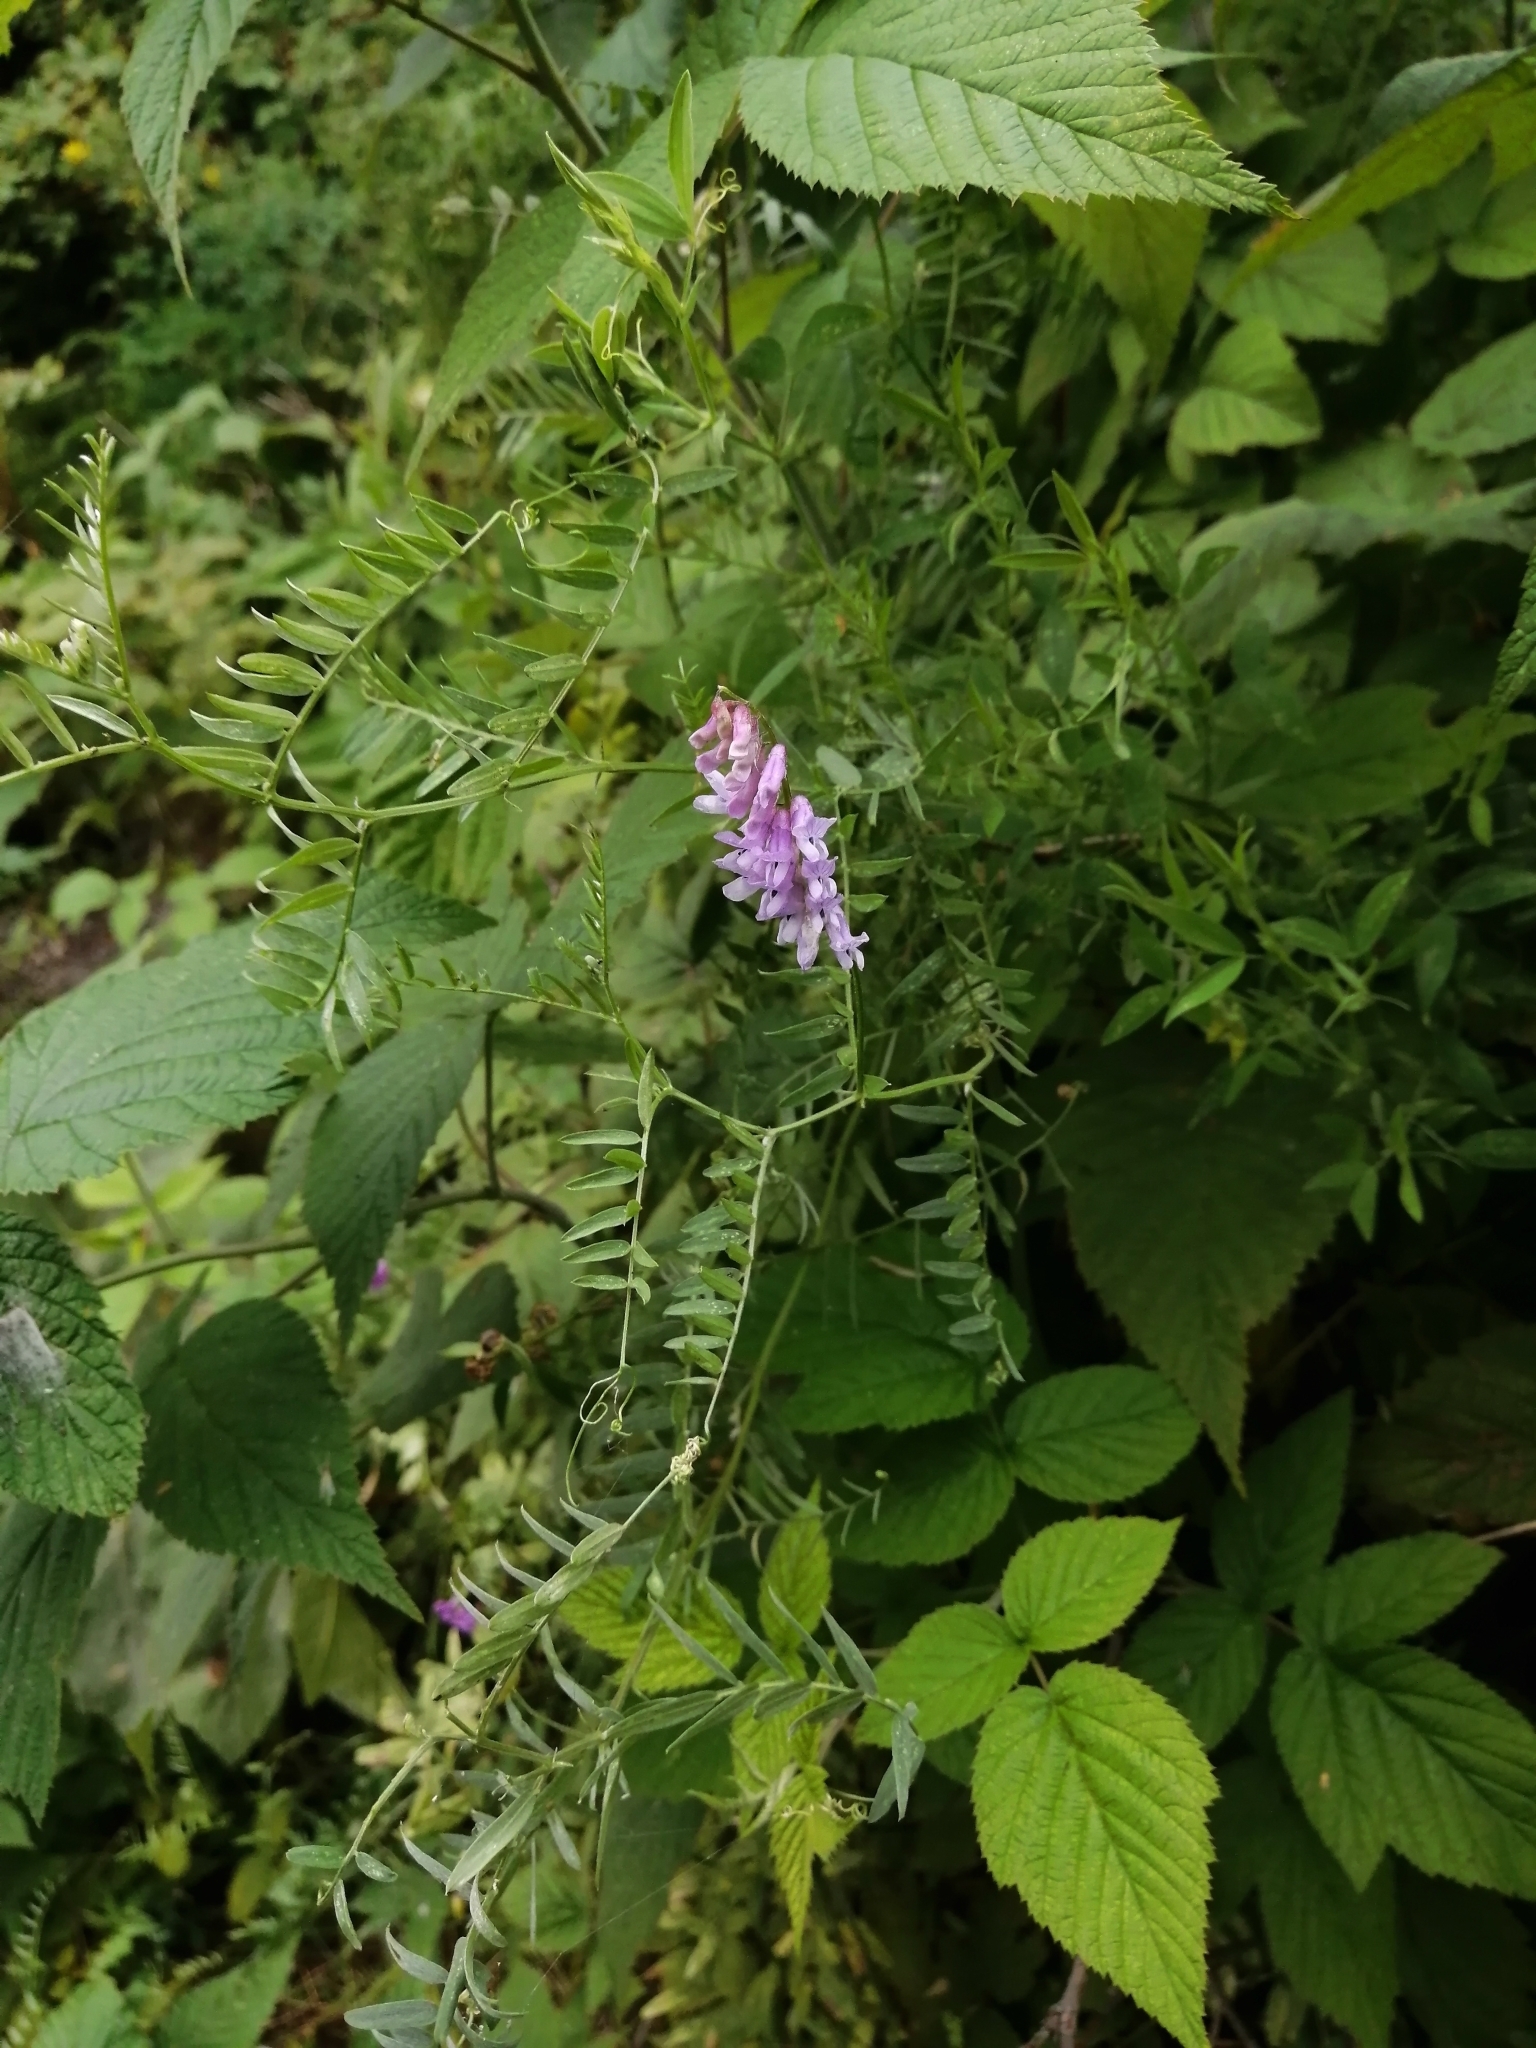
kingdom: Plantae
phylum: Tracheophyta
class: Magnoliopsida
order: Fabales
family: Fabaceae
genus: Vicia
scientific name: Vicia cracca
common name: Bird vetch
